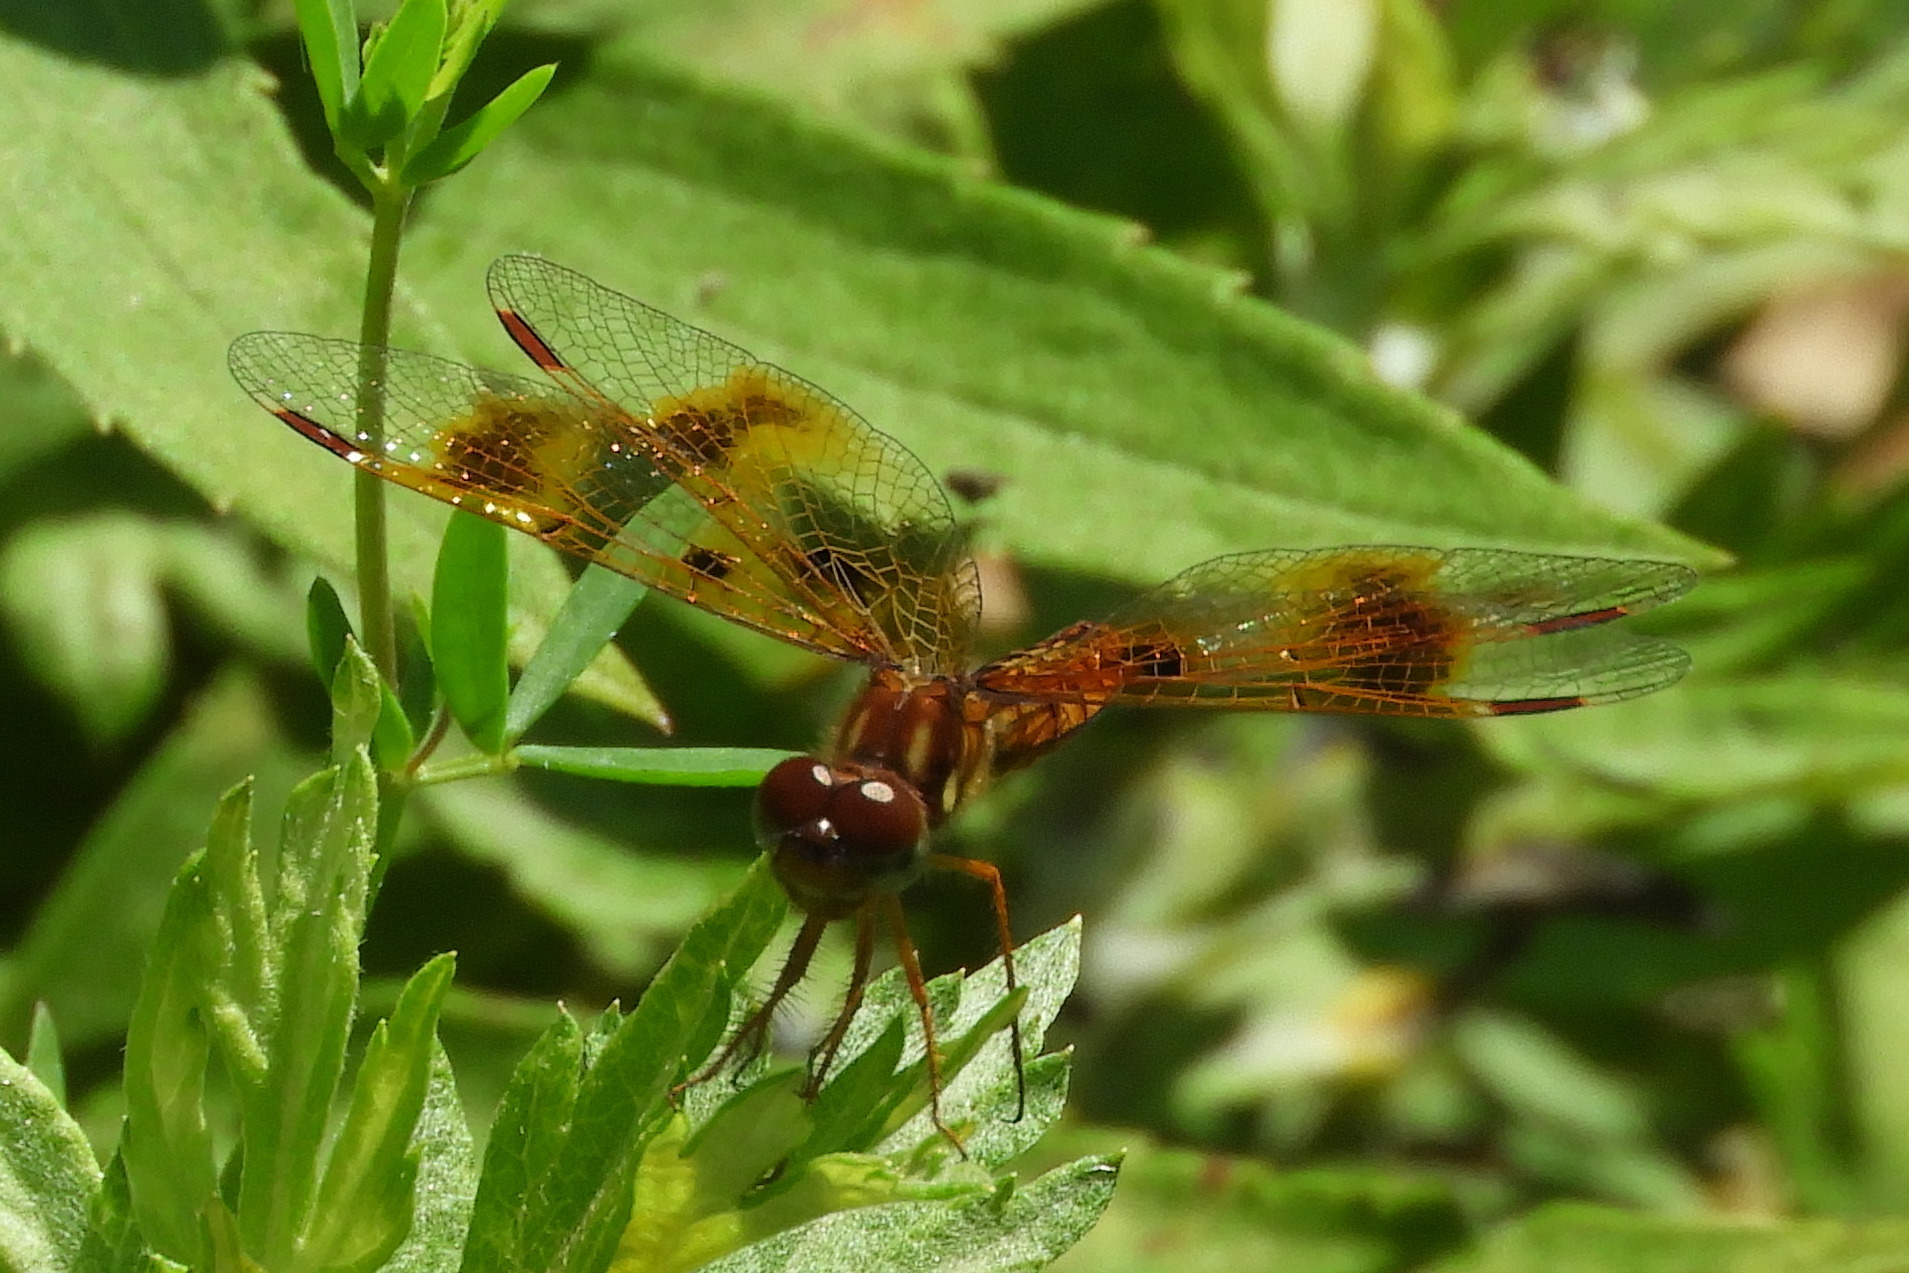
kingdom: Animalia
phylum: Arthropoda
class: Insecta
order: Odonata
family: Libellulidae
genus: Perithemis
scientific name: Perithemis tenera
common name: Eastern amberwing
